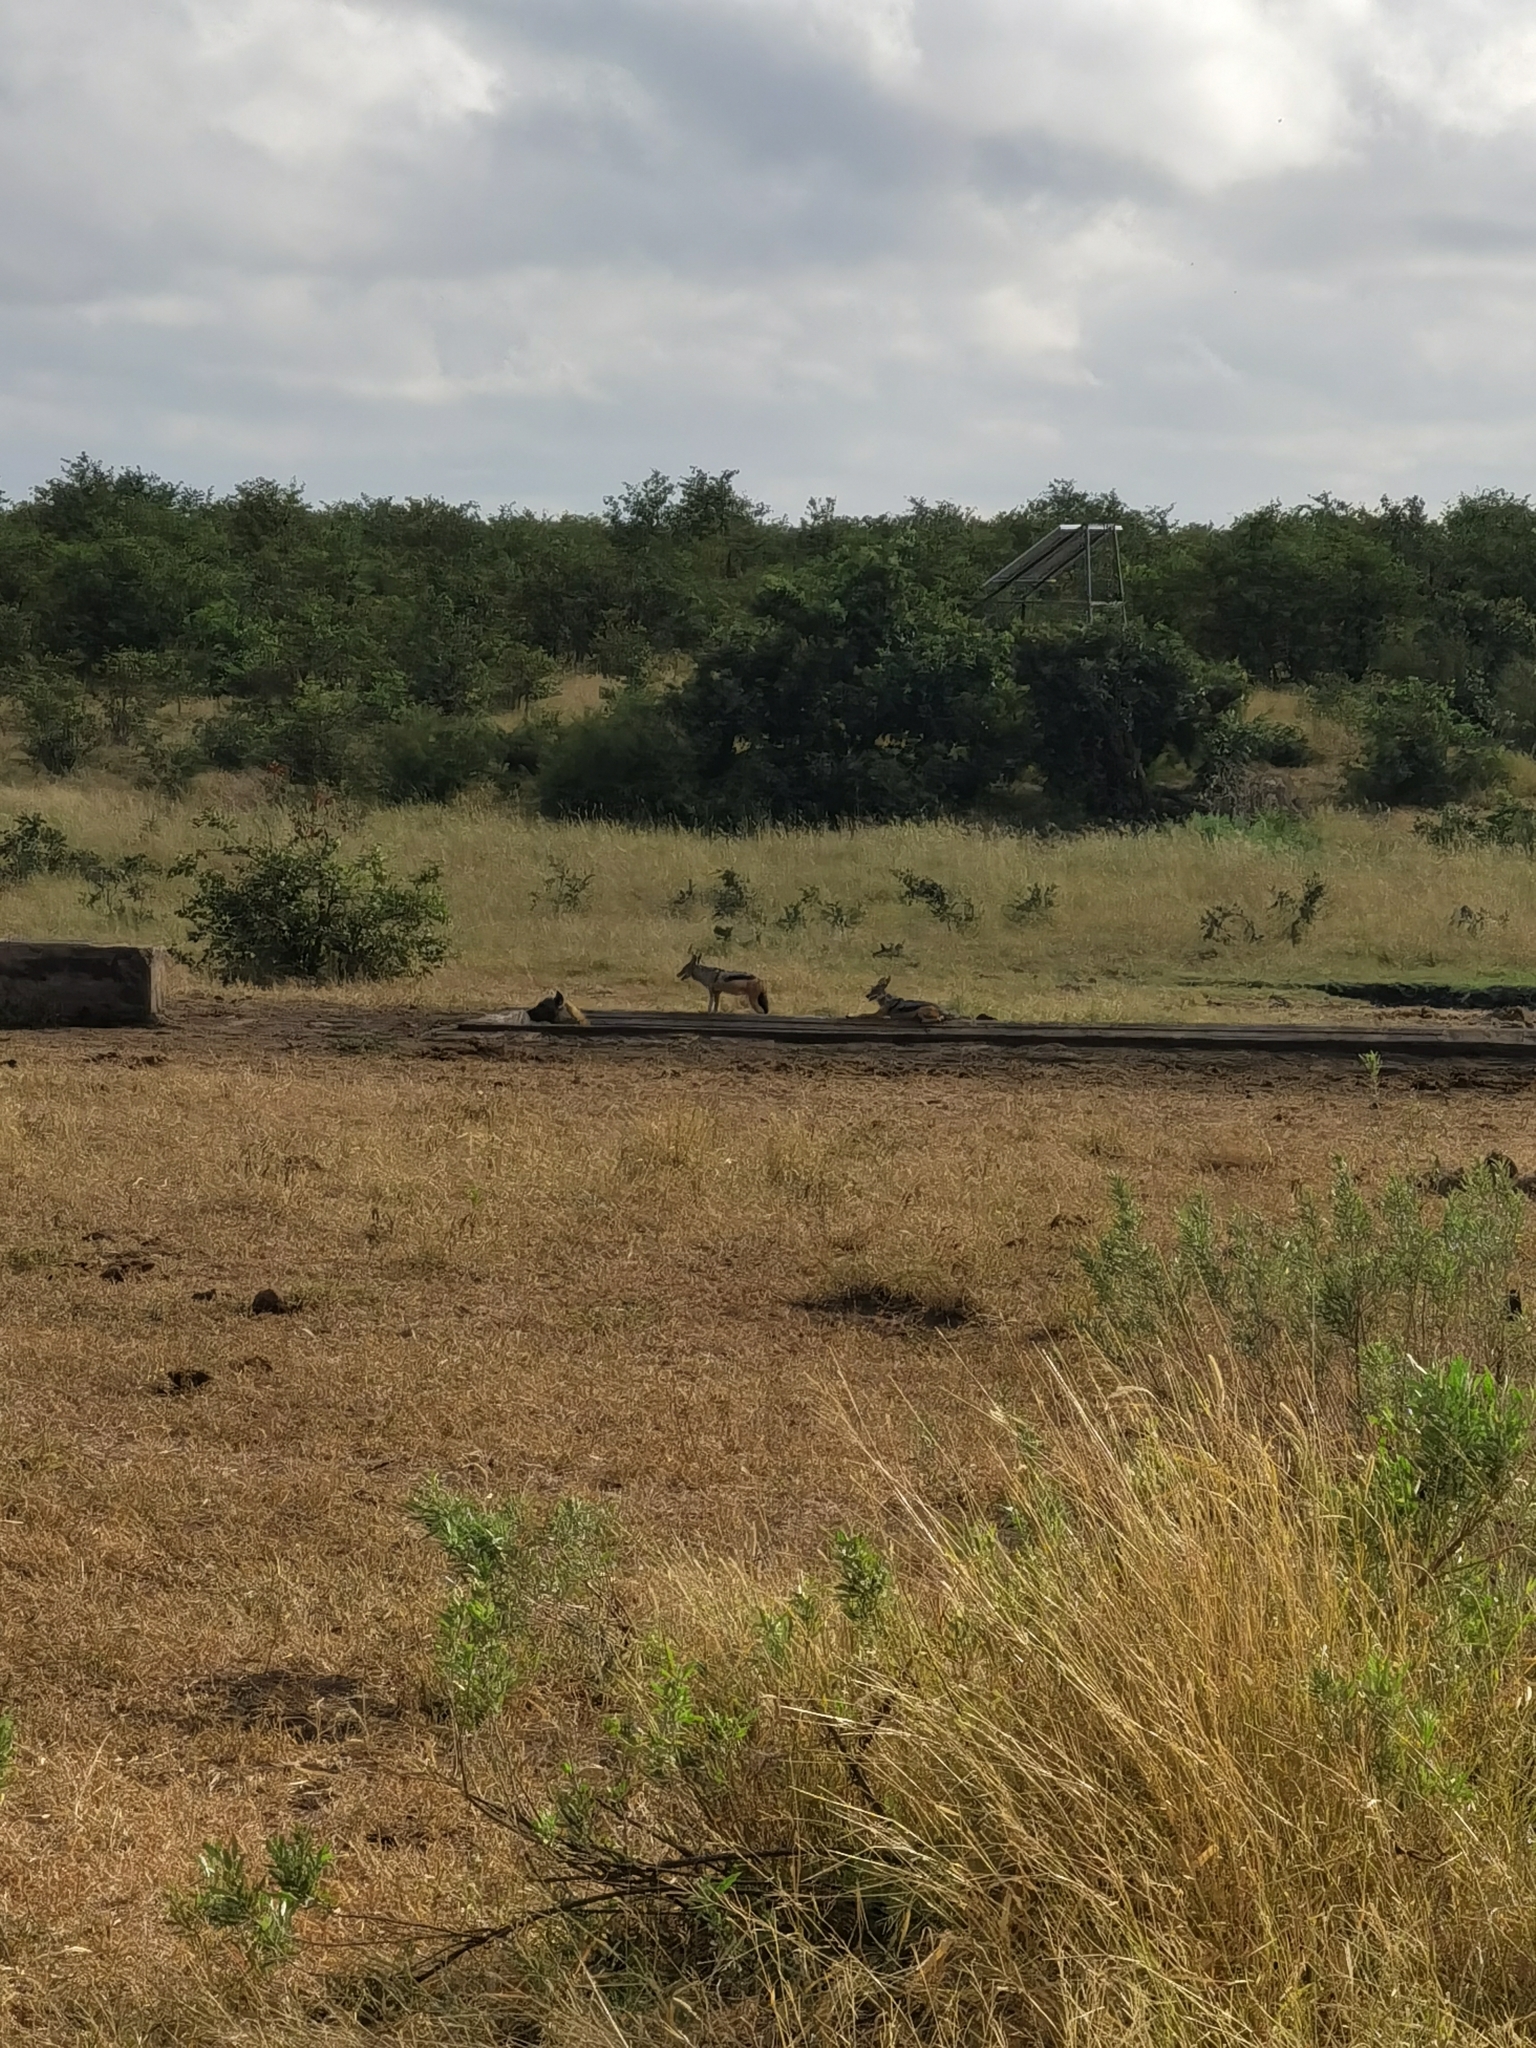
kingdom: Animalia
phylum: Chordata
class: Mammalia
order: Carnivora
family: Hyaenidae
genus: Crocuta
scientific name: Crocuta crocuta
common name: Spotted hyaena
